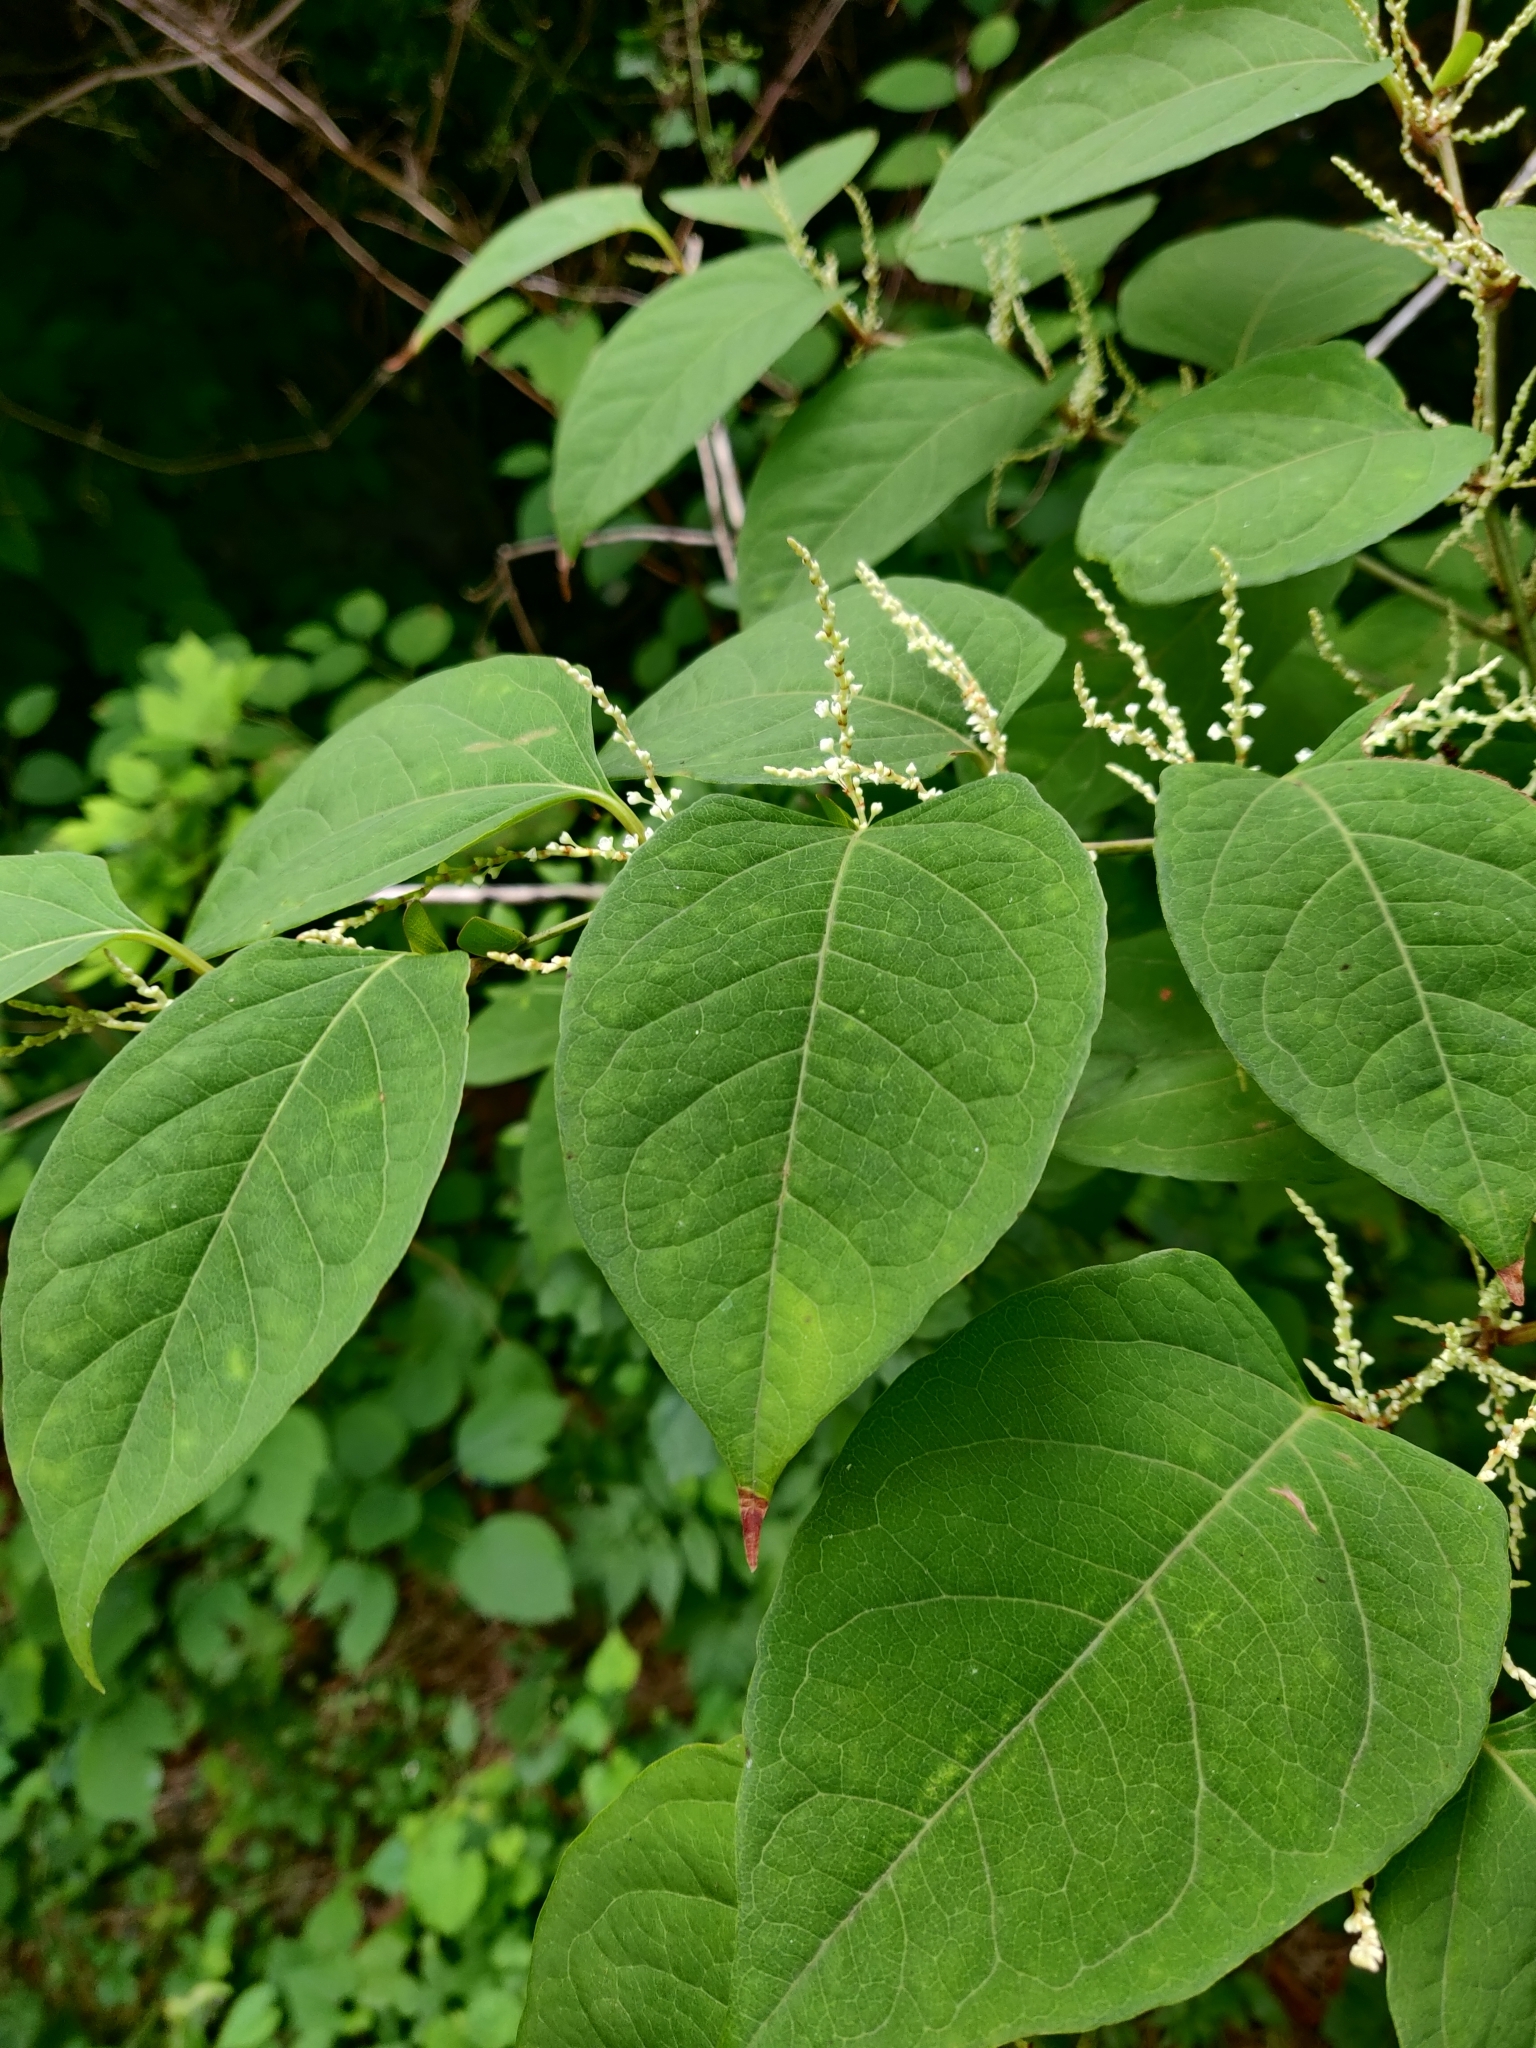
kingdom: Plantae
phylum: Tracheophyta
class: Magnoliopsida
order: Caryophyllales
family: Polygonaceae
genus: Reynoutria
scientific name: Reynoutria japonica
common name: Japanese knotweed
